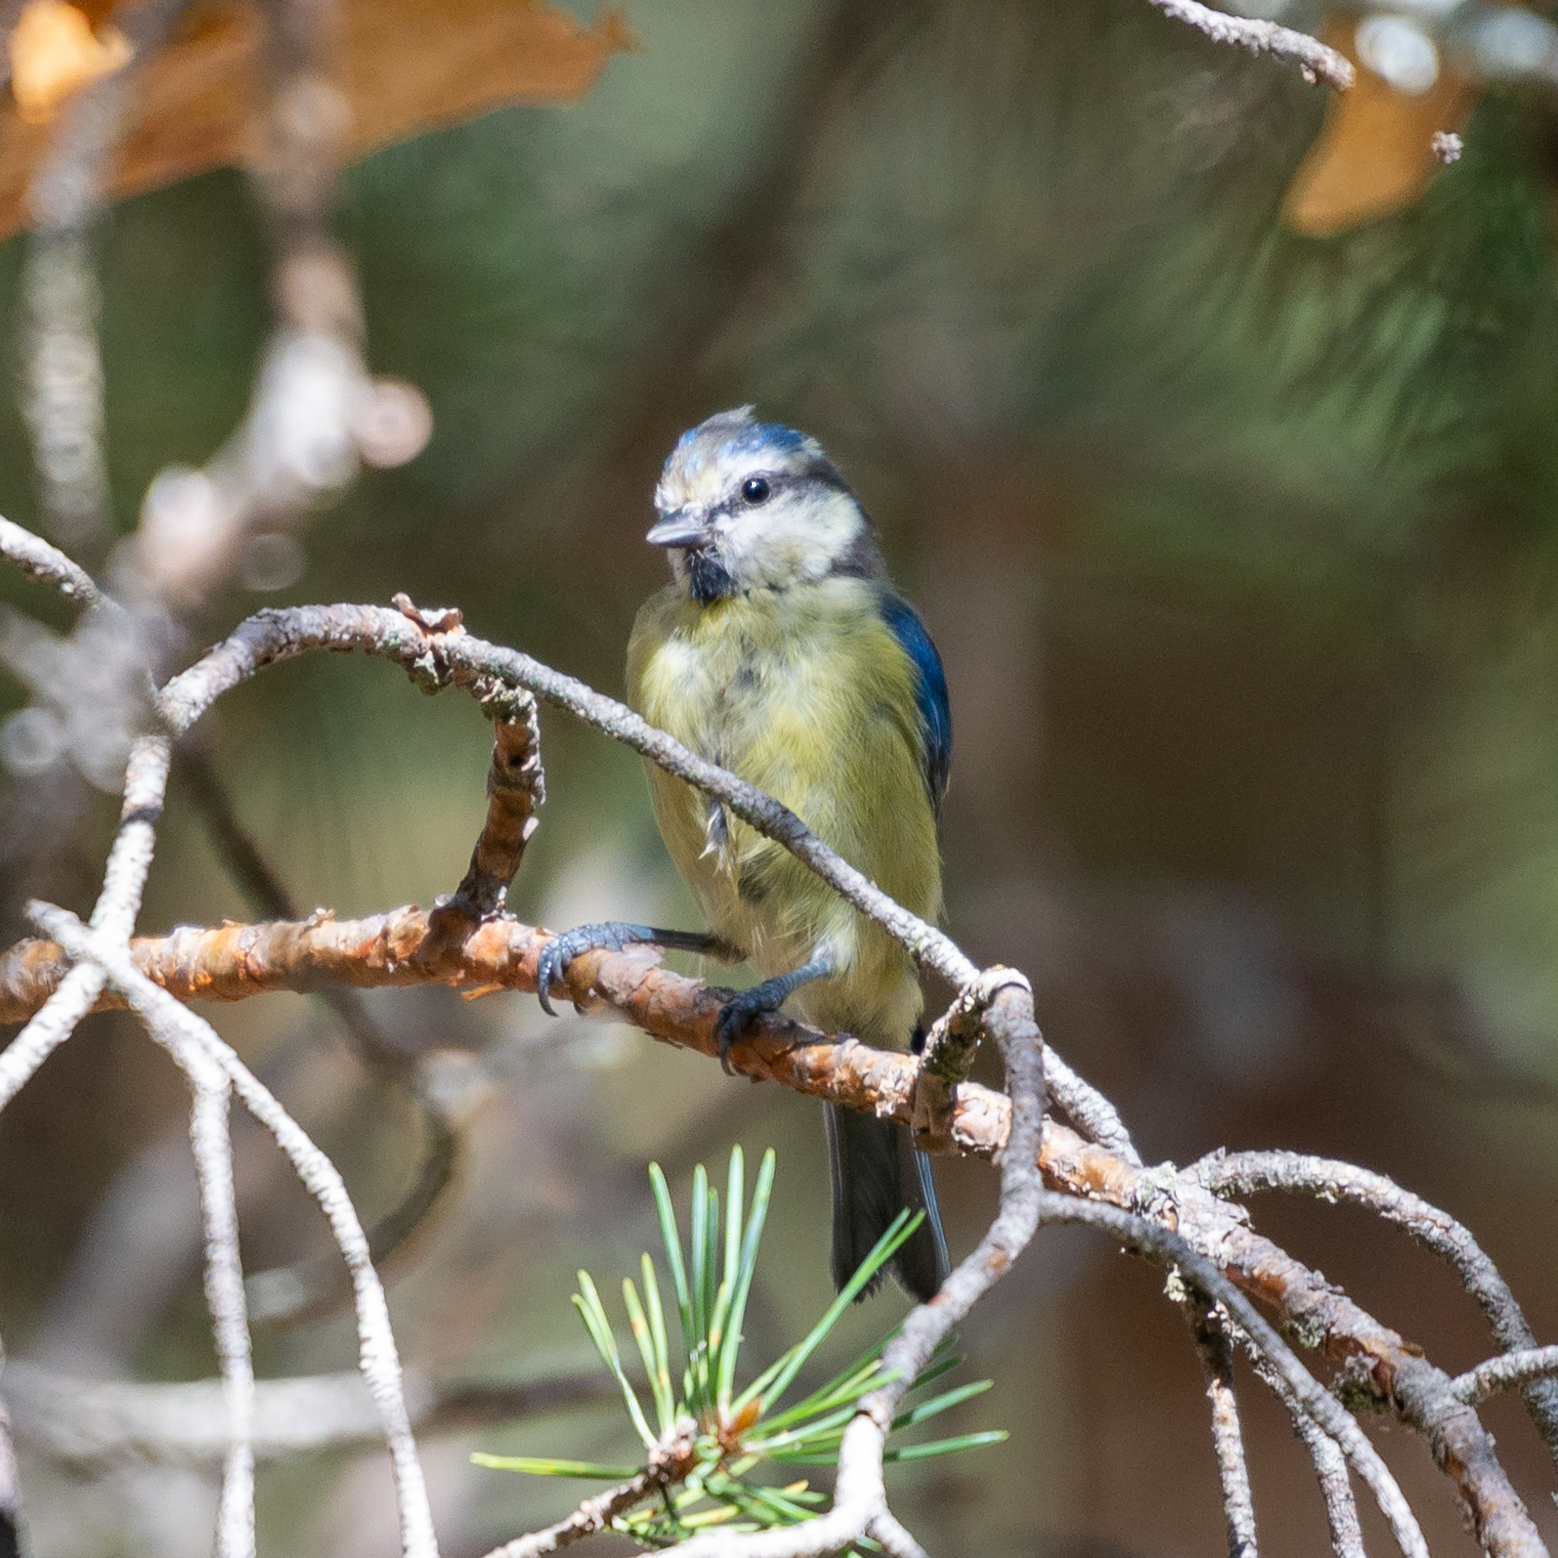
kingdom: Animalia
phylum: Chordata
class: Aves
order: Passeriformes
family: Paridae
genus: Cyanistes
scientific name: Cyanistes caeruleus
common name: Eurasian blue tit
